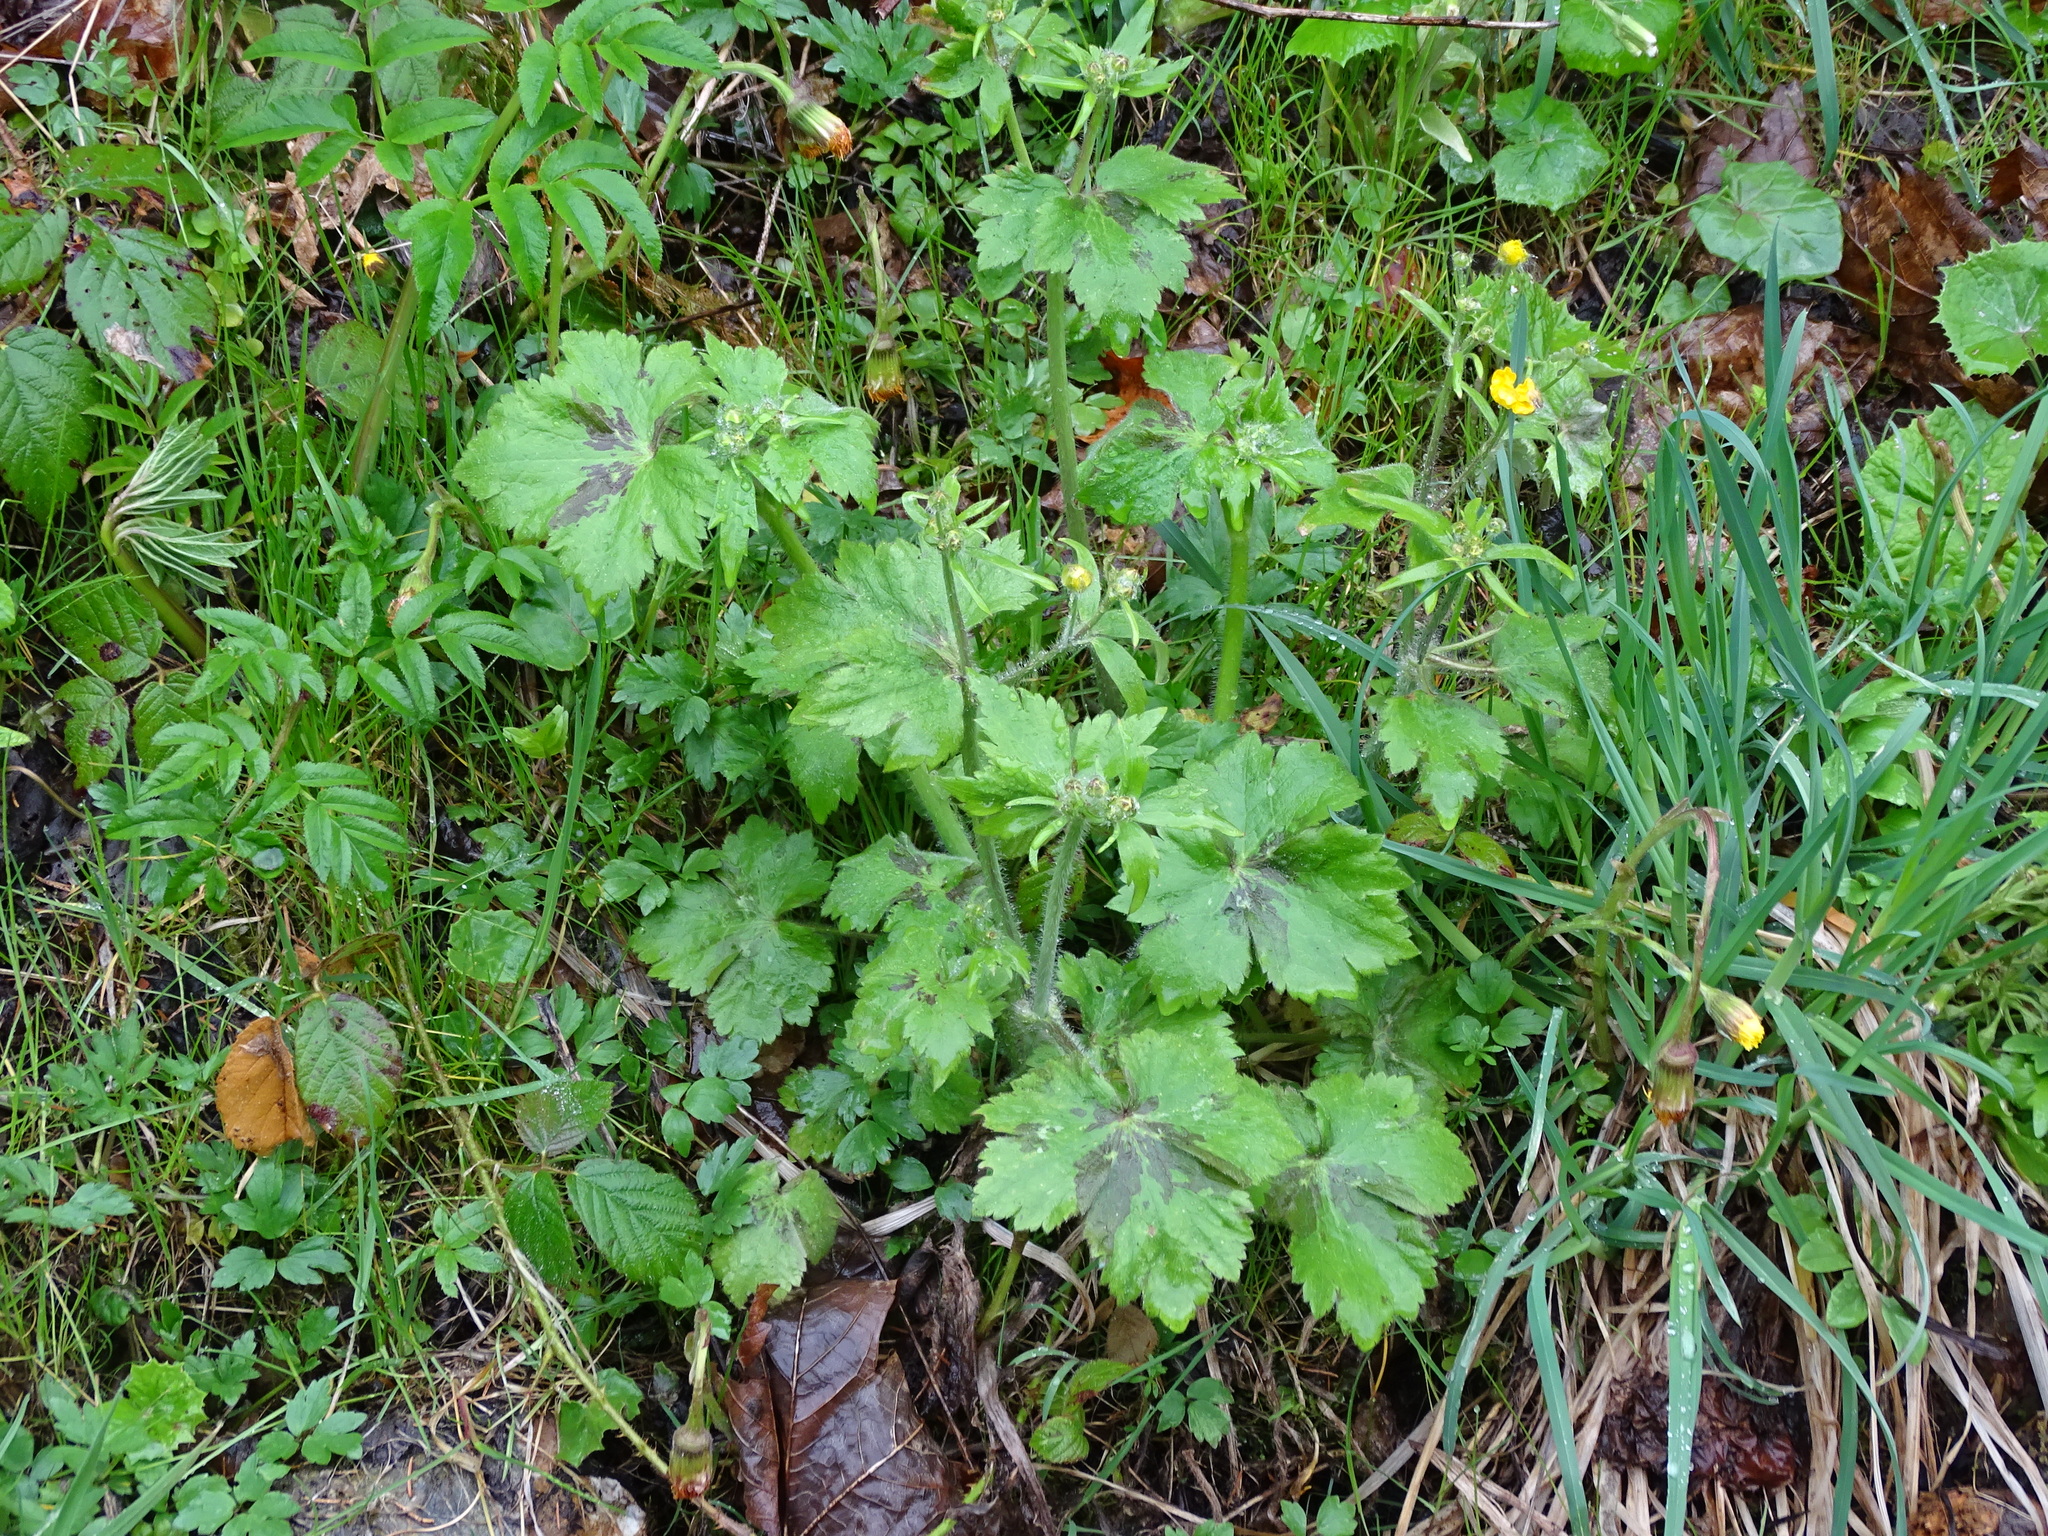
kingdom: Plantae
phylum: Tracheophyta
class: Magnoliopsida
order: Ranunculales
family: Ranunculaceae
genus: Ranunculus
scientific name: Ranunculus lanuginosus
